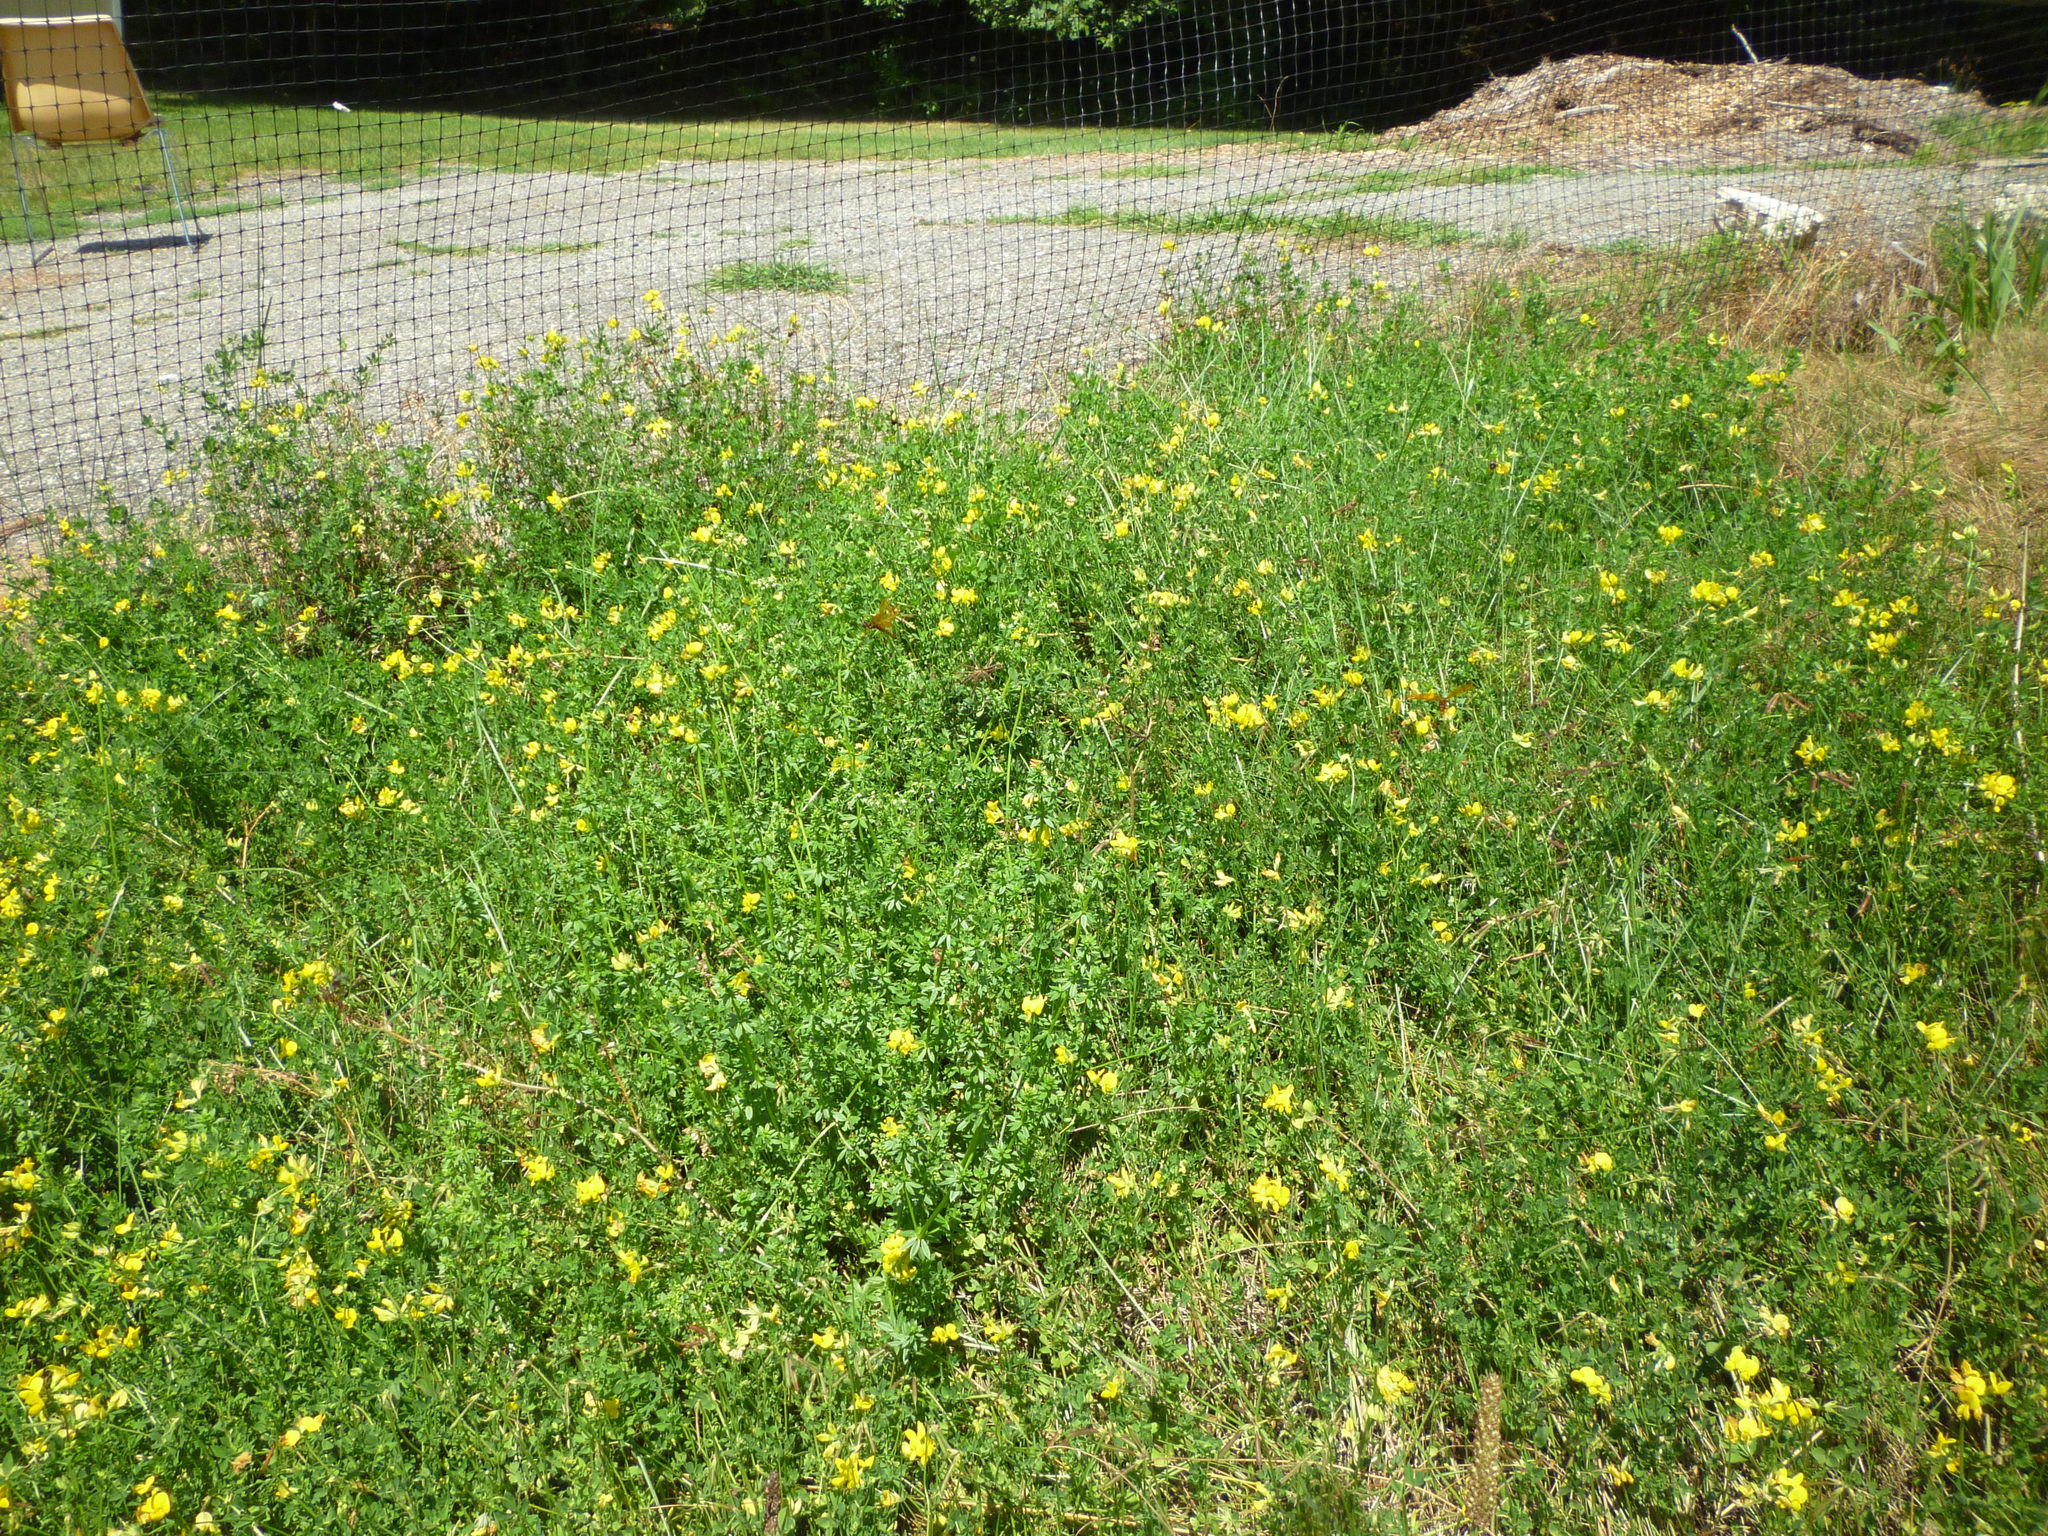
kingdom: Plantae
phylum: Tracheophyta
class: Magnoliopsida
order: Fabales
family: Fabaceae
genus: Lotus
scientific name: Lotus corniculatus
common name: Common bird's-foot-trefoil
